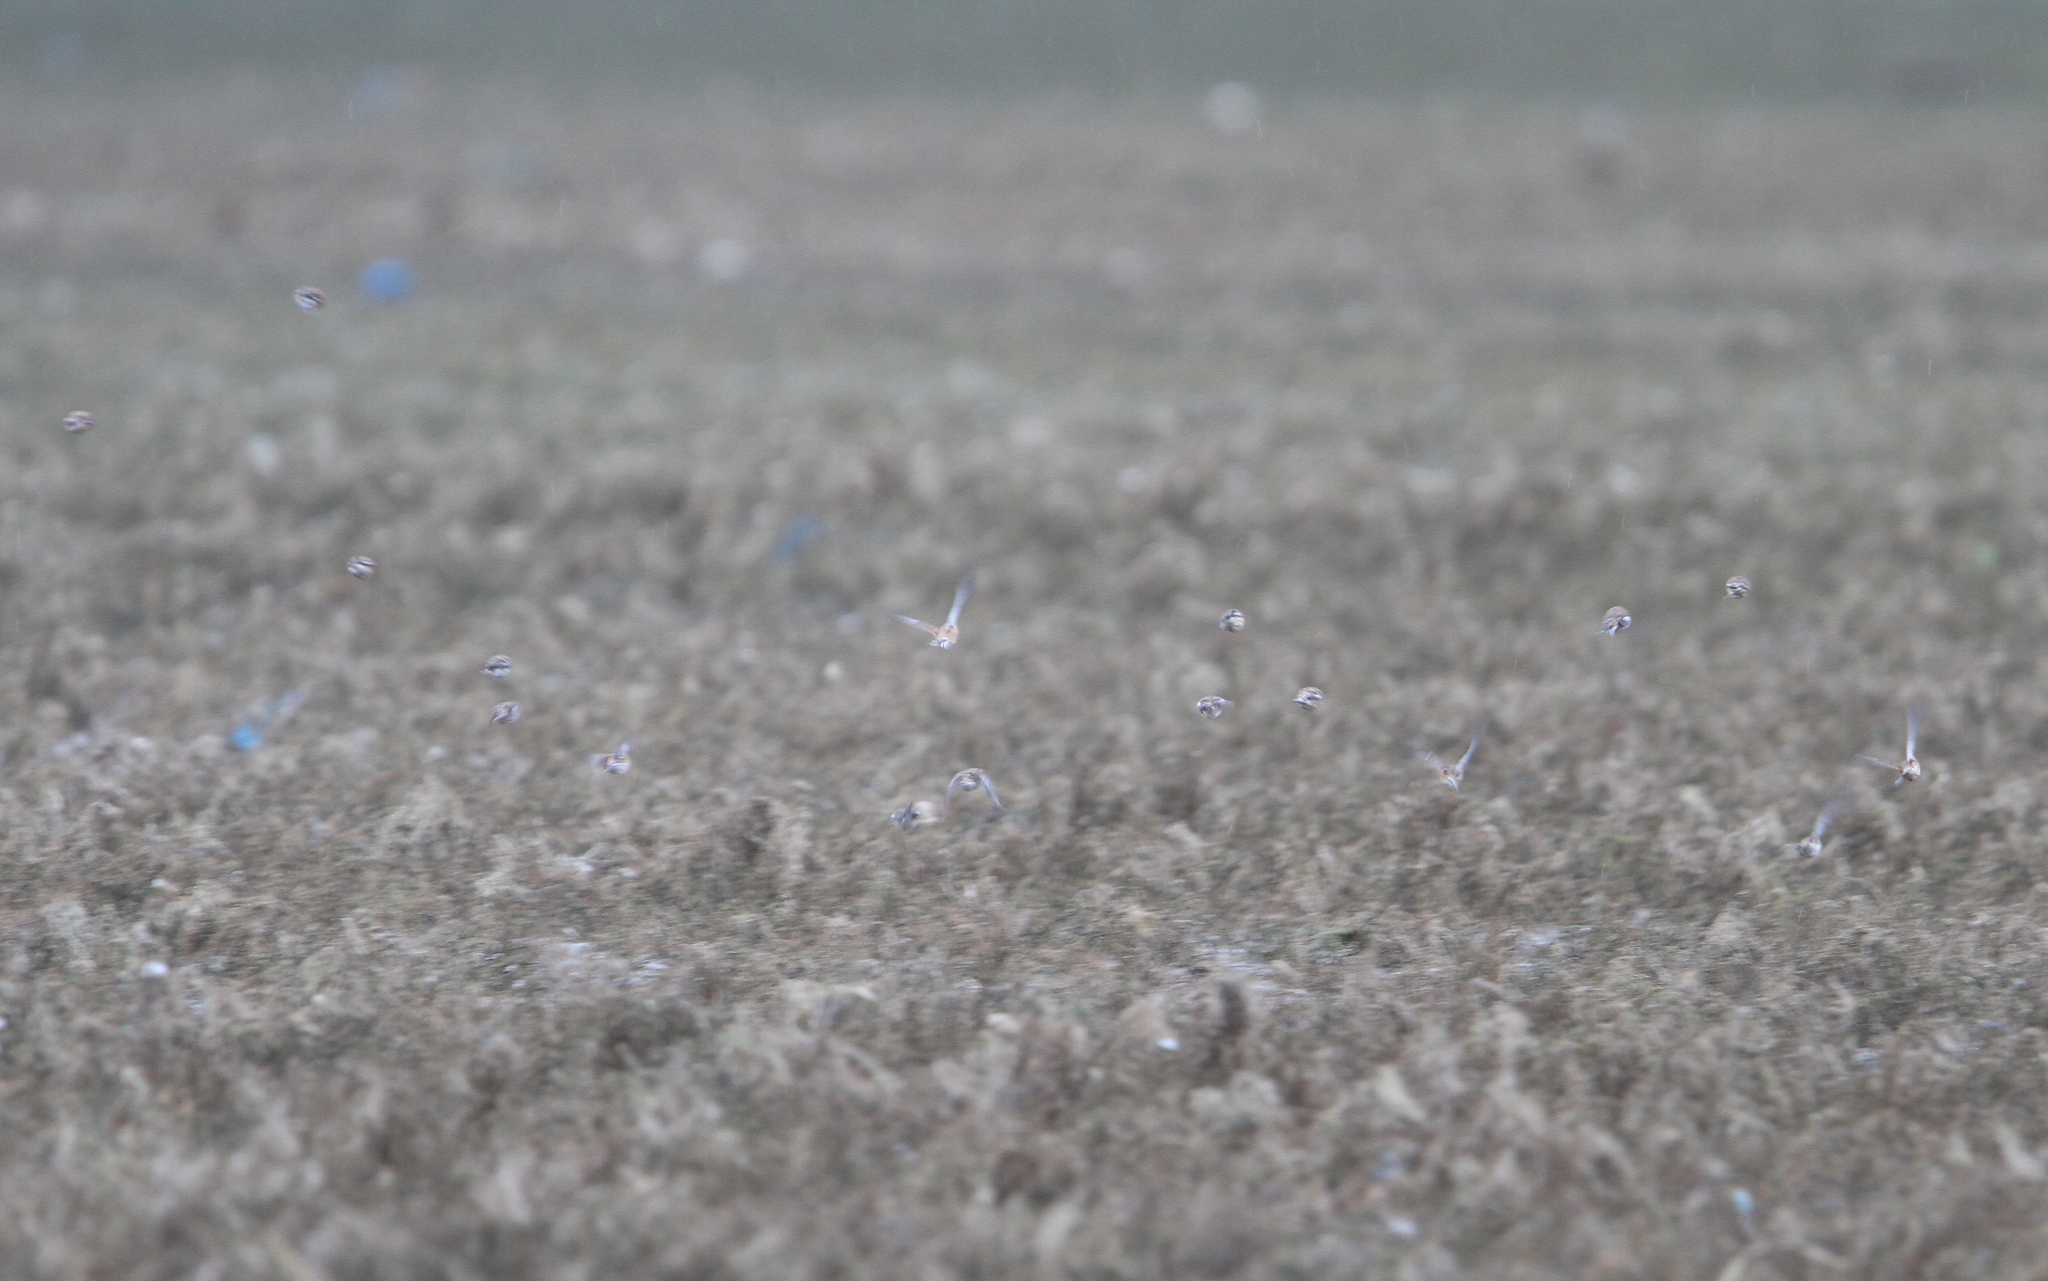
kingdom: Animalia
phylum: Chordata
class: Aves
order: Passeriformes
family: Fringillidae
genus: Linaria
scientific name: Linaria cannabina
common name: Common linnet
